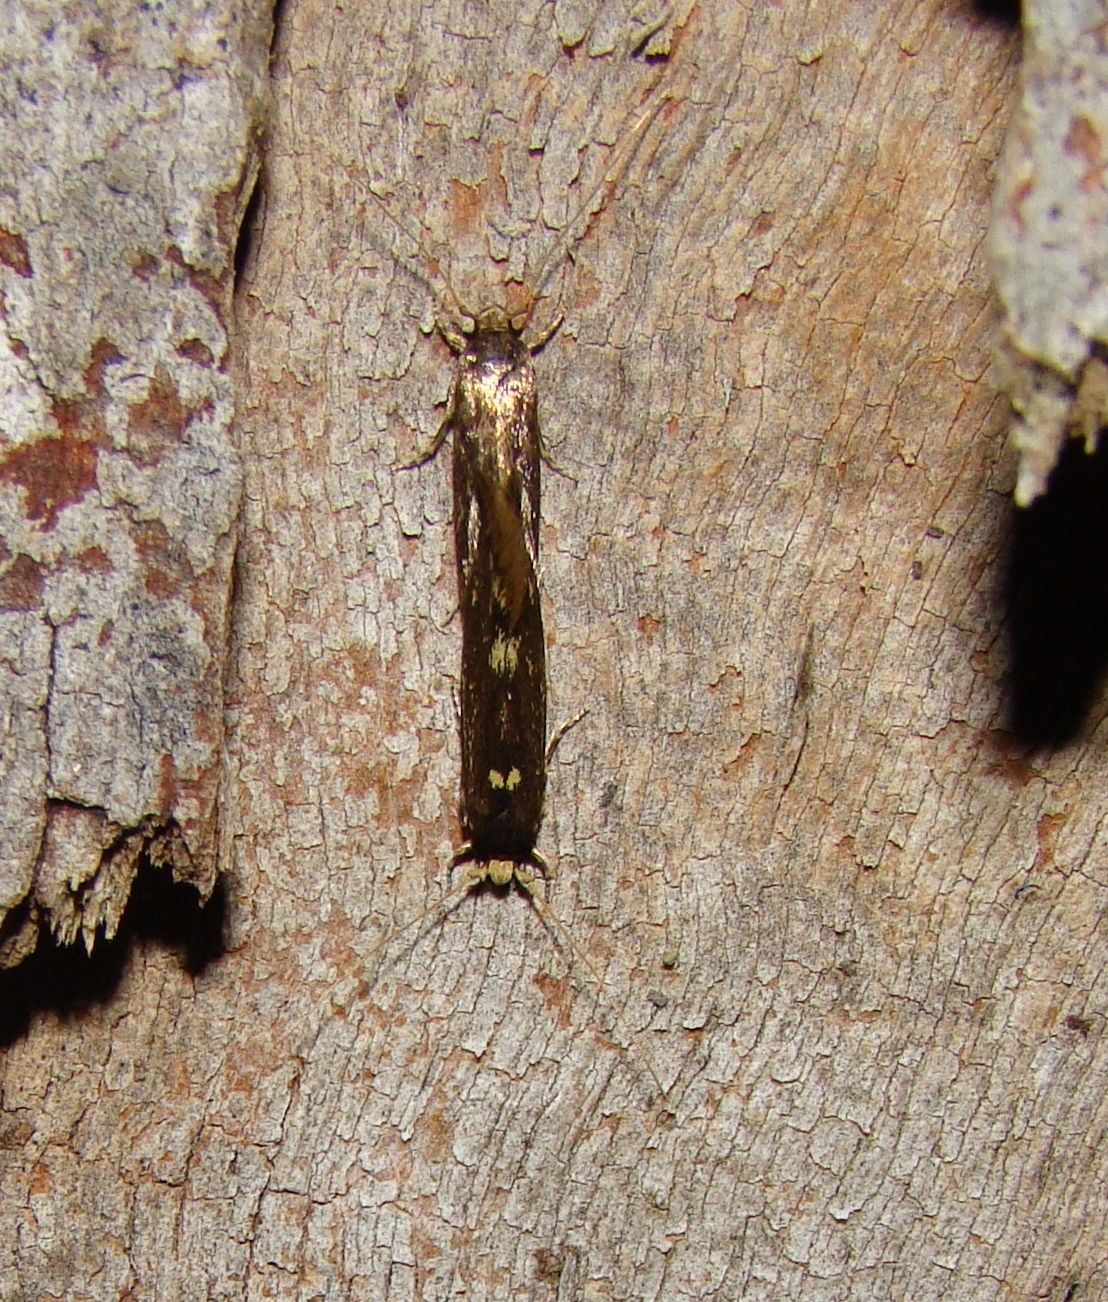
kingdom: Animalia
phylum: Arthropoda
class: Insecta
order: Lepidoptera
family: Tineidae
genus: Opogona
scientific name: Opogona omoscopa
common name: Moth
